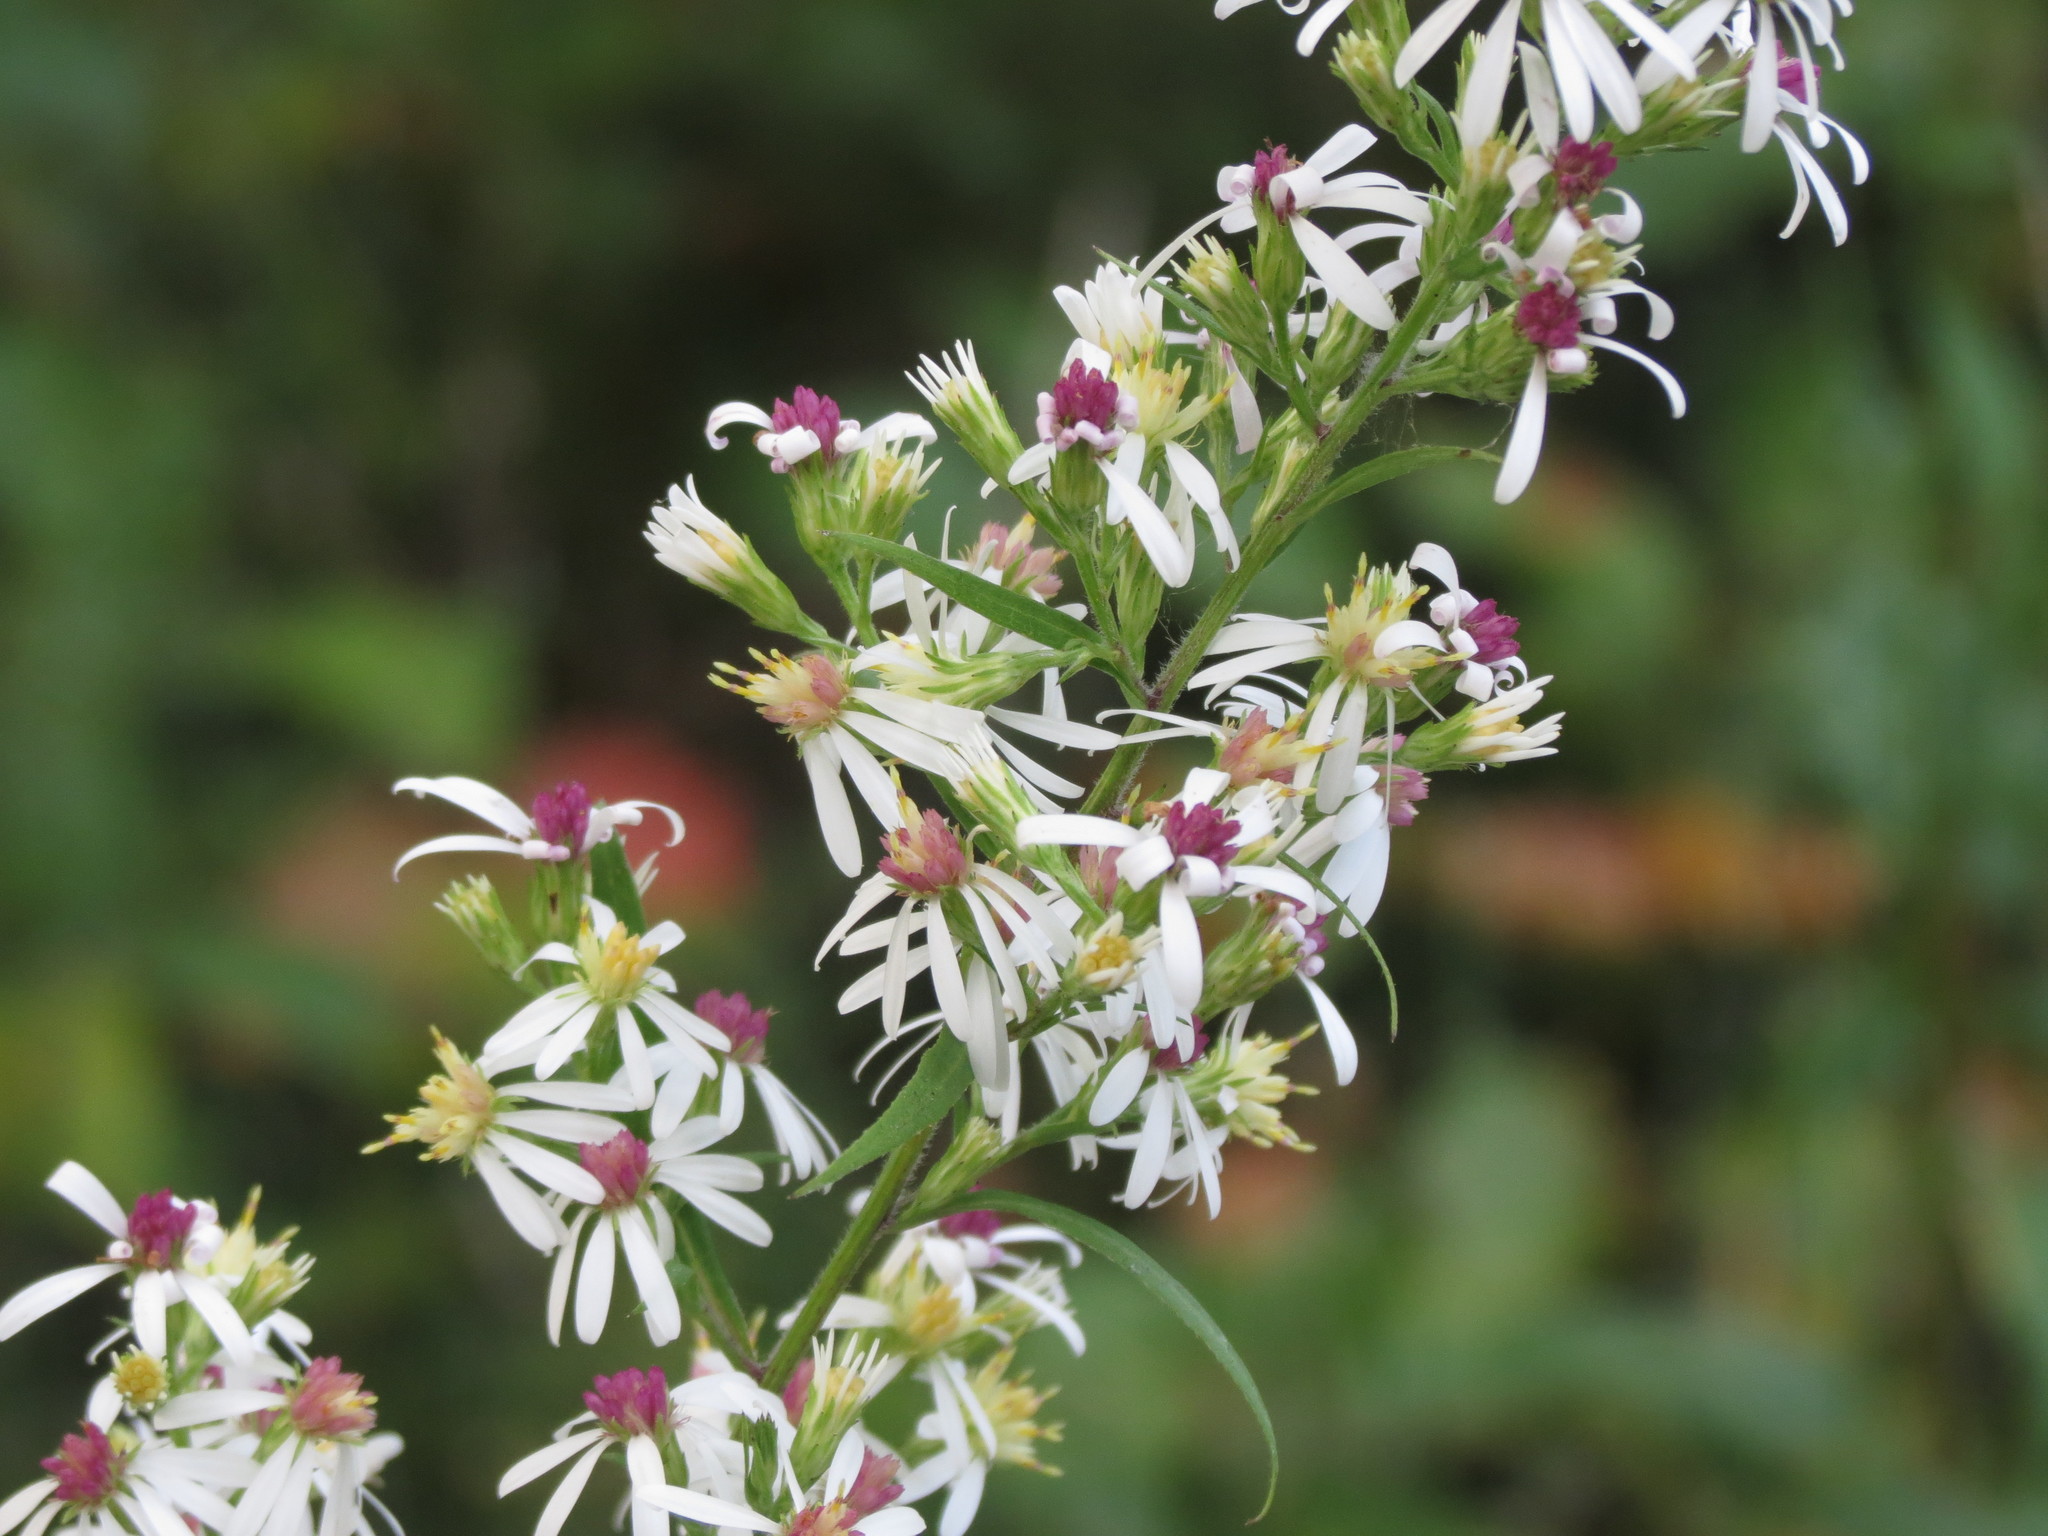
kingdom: Plantae
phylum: Tracheophyta
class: Magnoliopsida
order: Asterales
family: Asteraceae
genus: Symphyotrichum
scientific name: Symphyotrichum urophyllum
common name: Arrow-leaved aster
